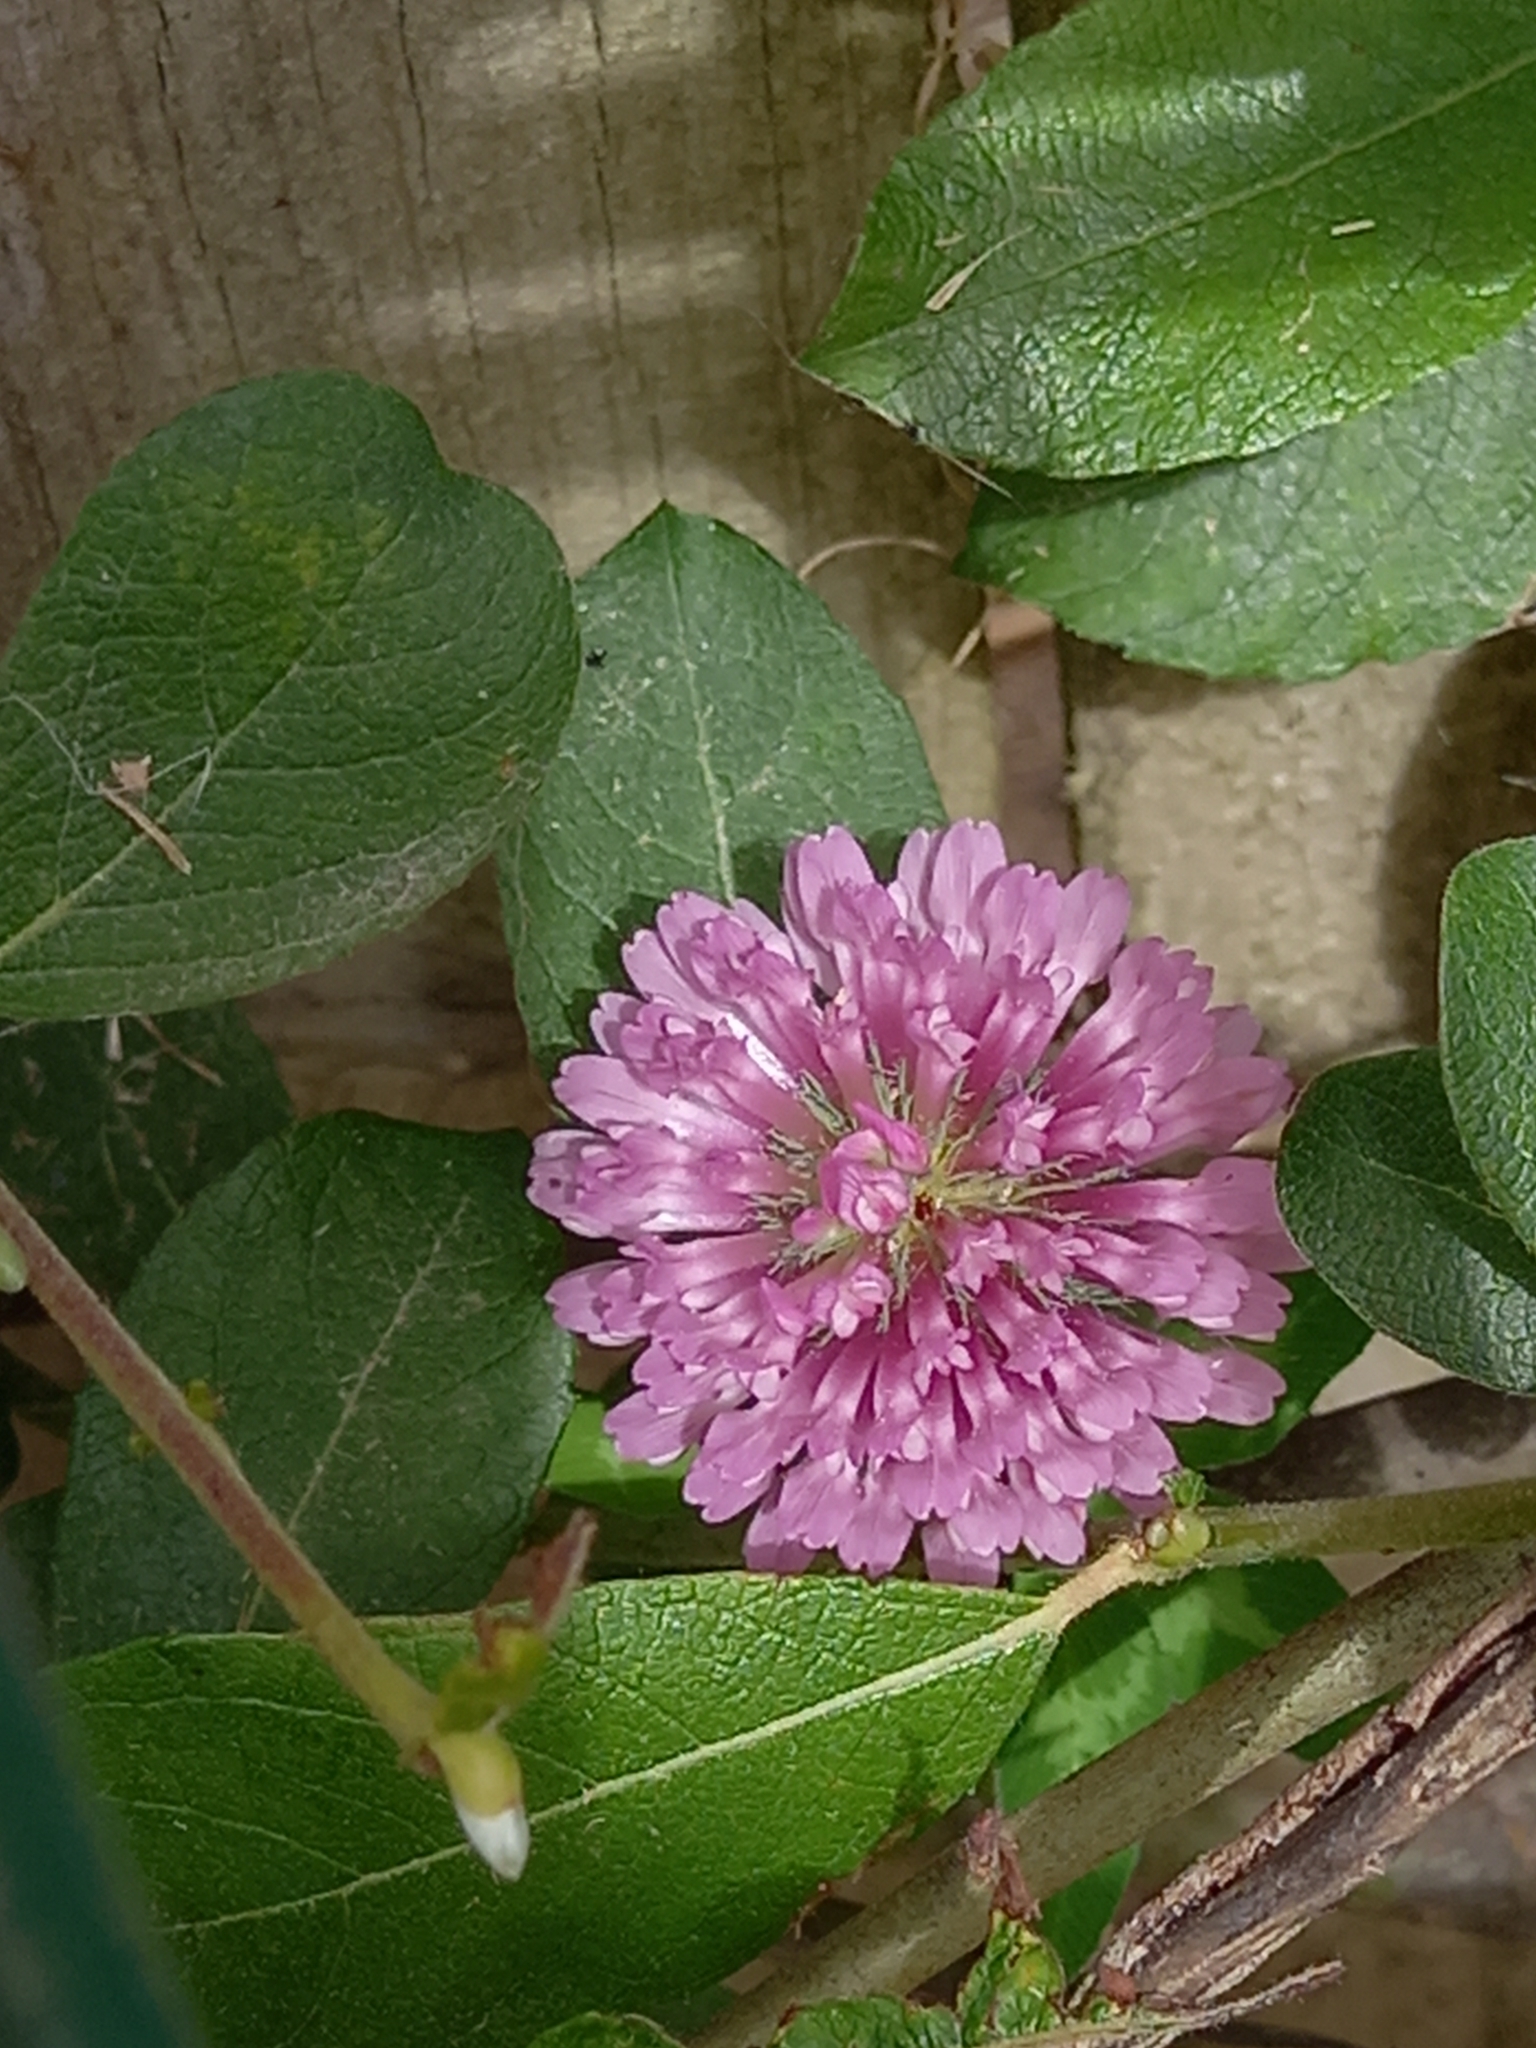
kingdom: Plantae
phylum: Tracheophyta
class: Magnoliopsida
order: Fabales
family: Fabaceae
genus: Trifolium
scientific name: Trifolium medium
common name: Zigzag clover
